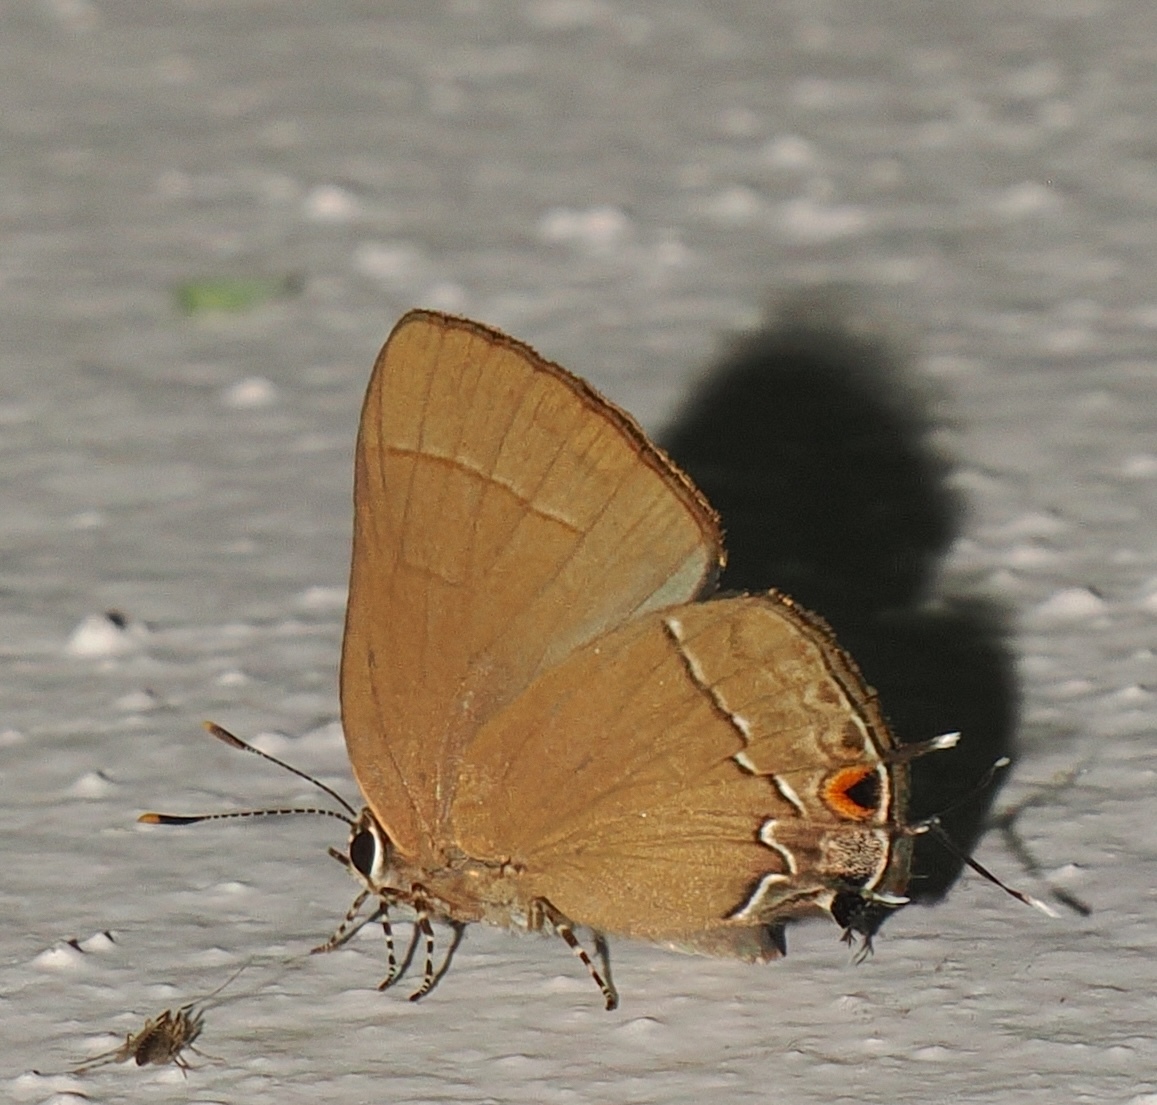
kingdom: Animalia
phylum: Arthropoda
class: Insecta
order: Lepidoptera
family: Lycaenidae
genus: Ziegleria
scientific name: Ziegleria hesperitis
